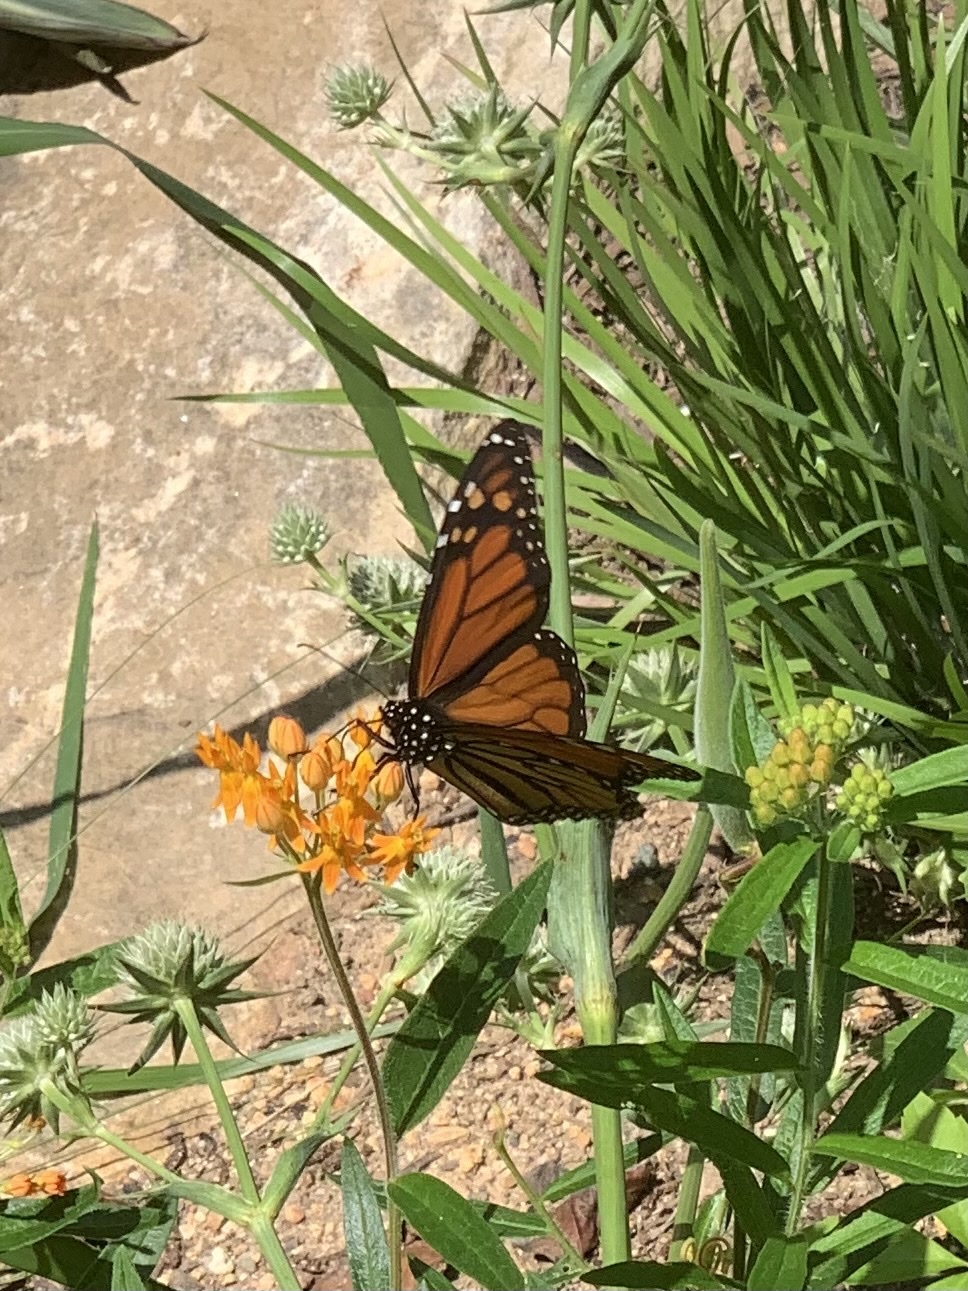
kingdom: Animalia
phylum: Arthropoda
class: Insecta
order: Lepidoptera
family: Nymphalidae
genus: Danaus
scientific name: Danaus plexippus
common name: Monarch
